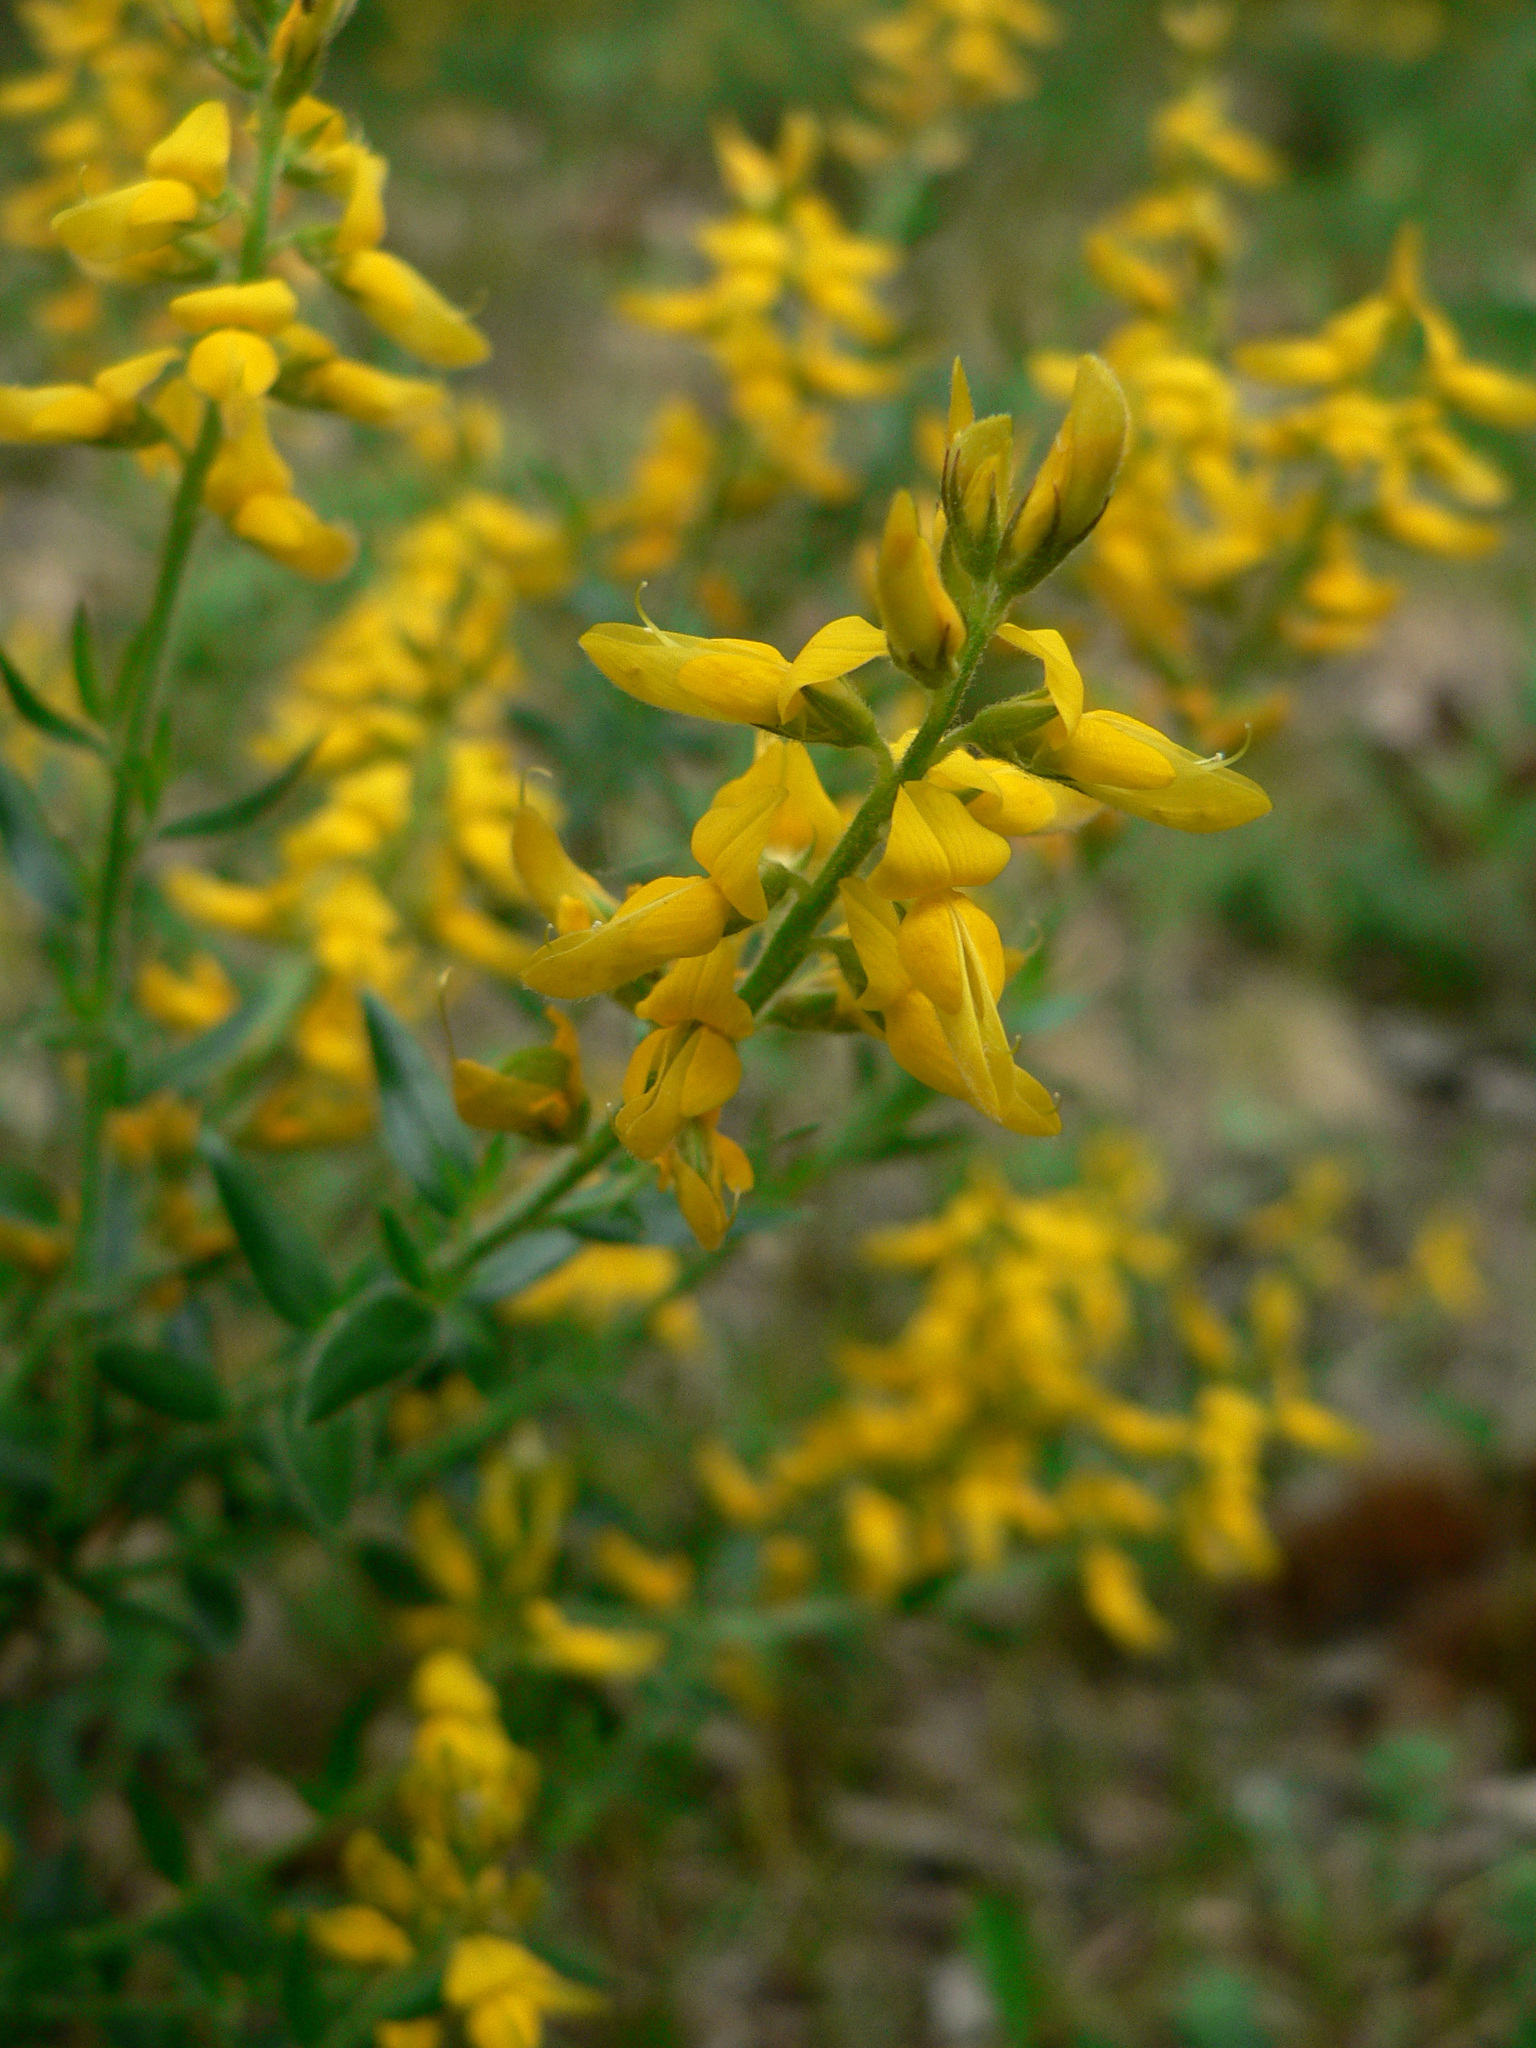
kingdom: Plantae
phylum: Tracheophyta
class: Magnoliopsida
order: Fabales
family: Fabaceae
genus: Genista
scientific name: Genista germanica
